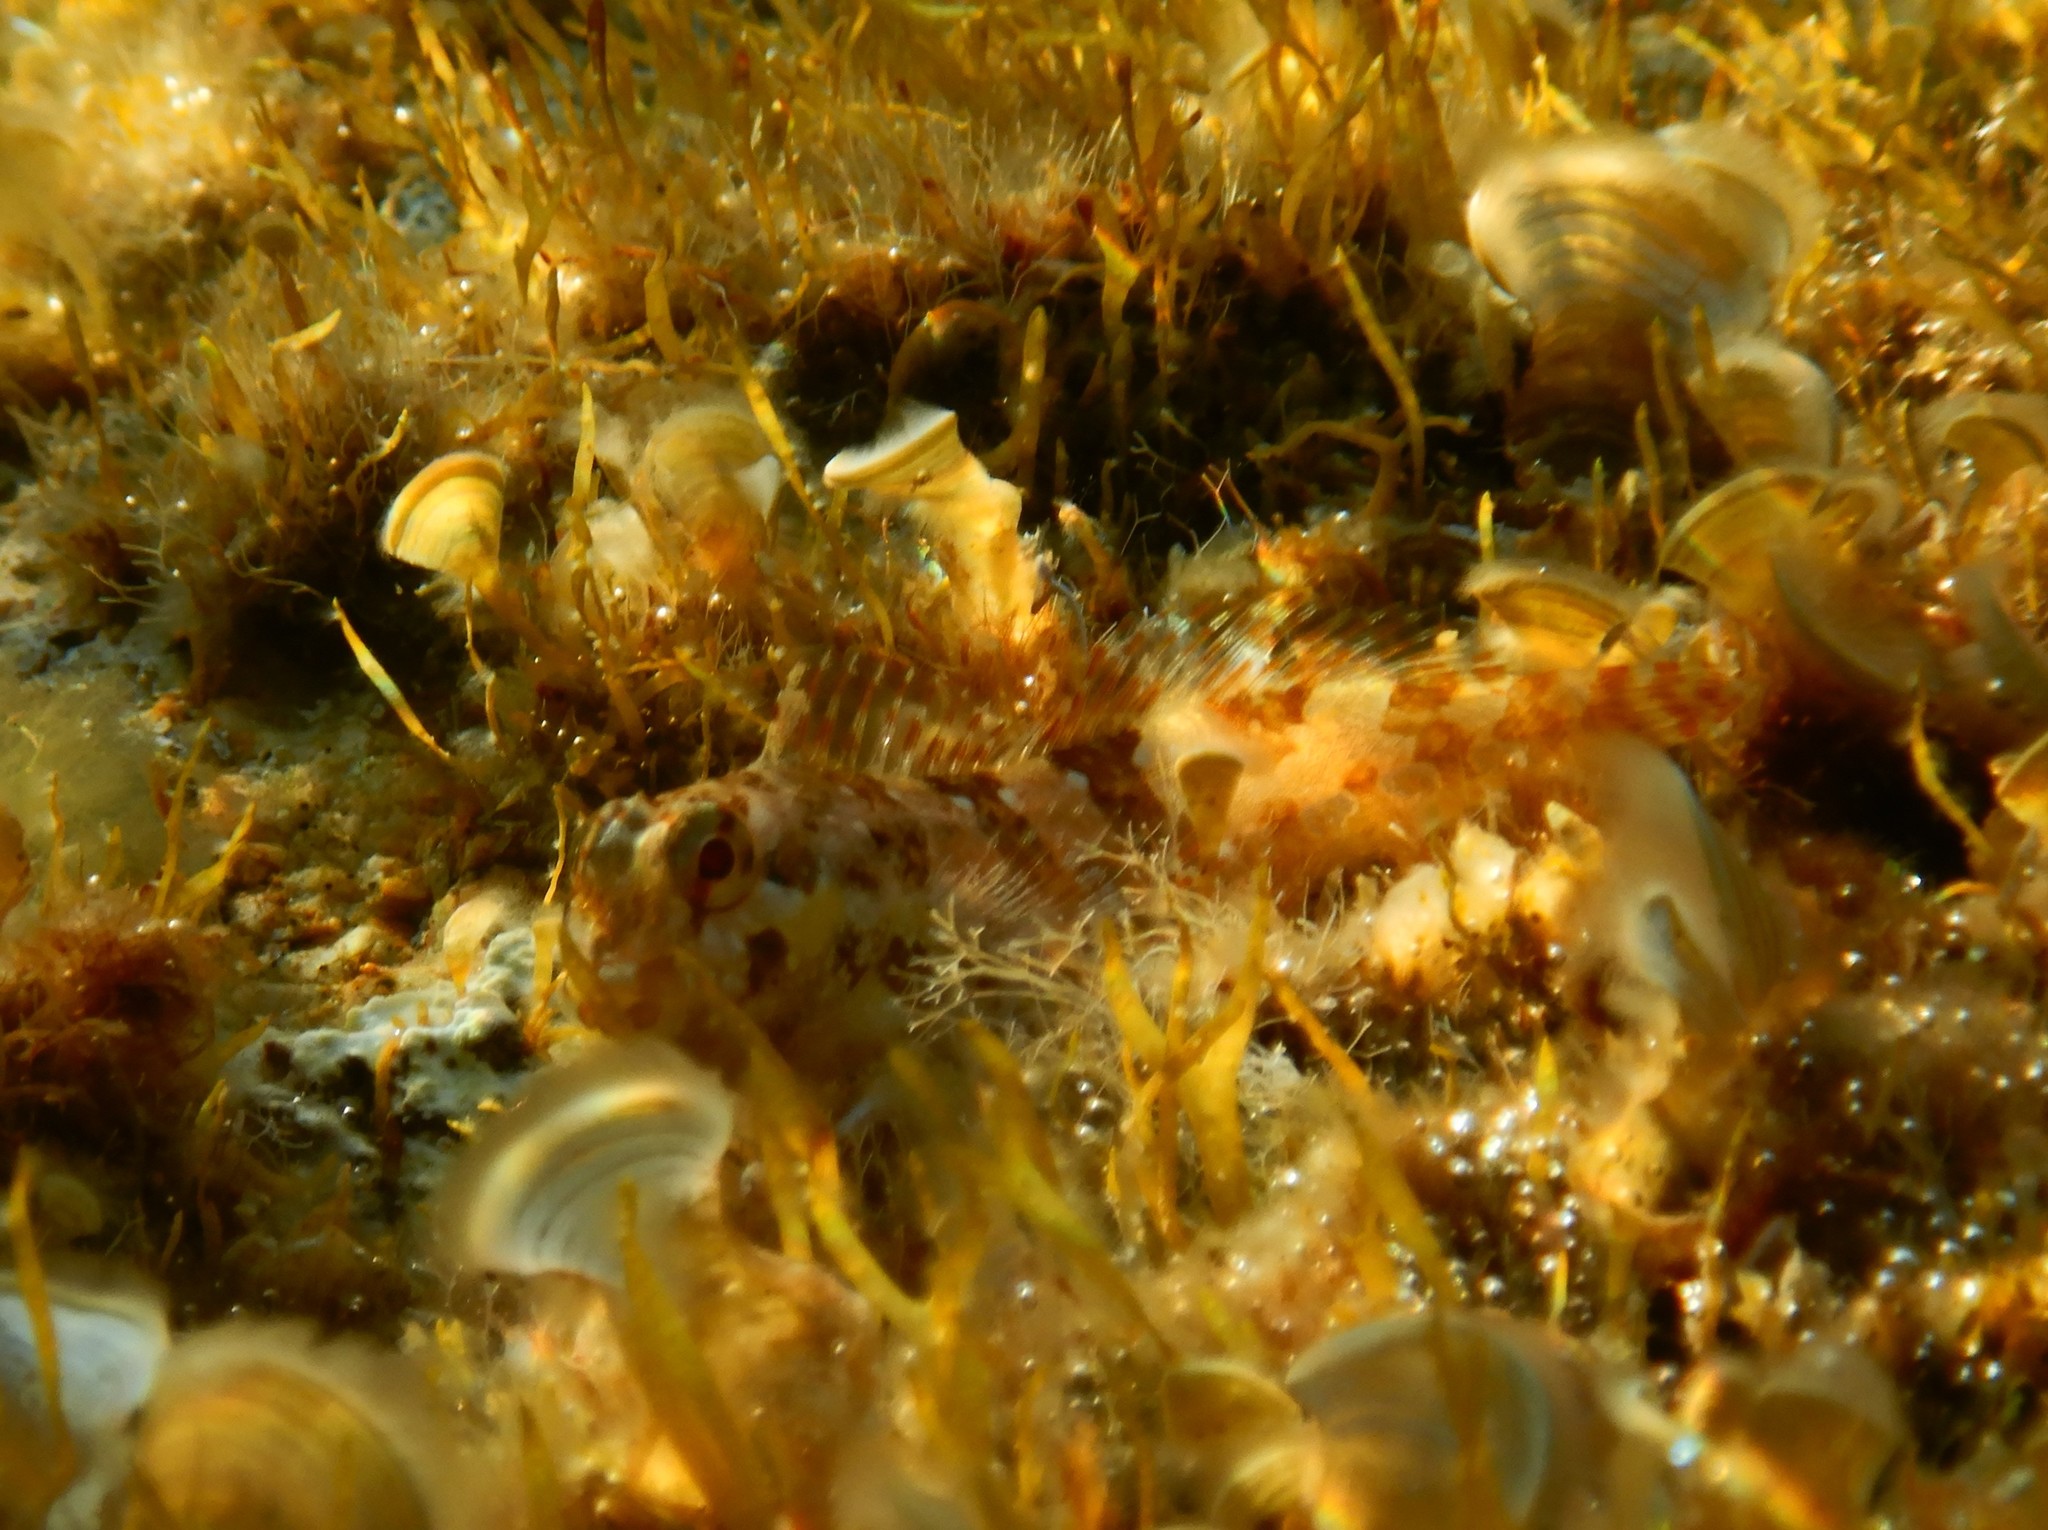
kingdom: Animalia
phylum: Chordata
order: Perciformes
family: Blenniidae
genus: Lipophrys
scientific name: Lipophrys trigloides
